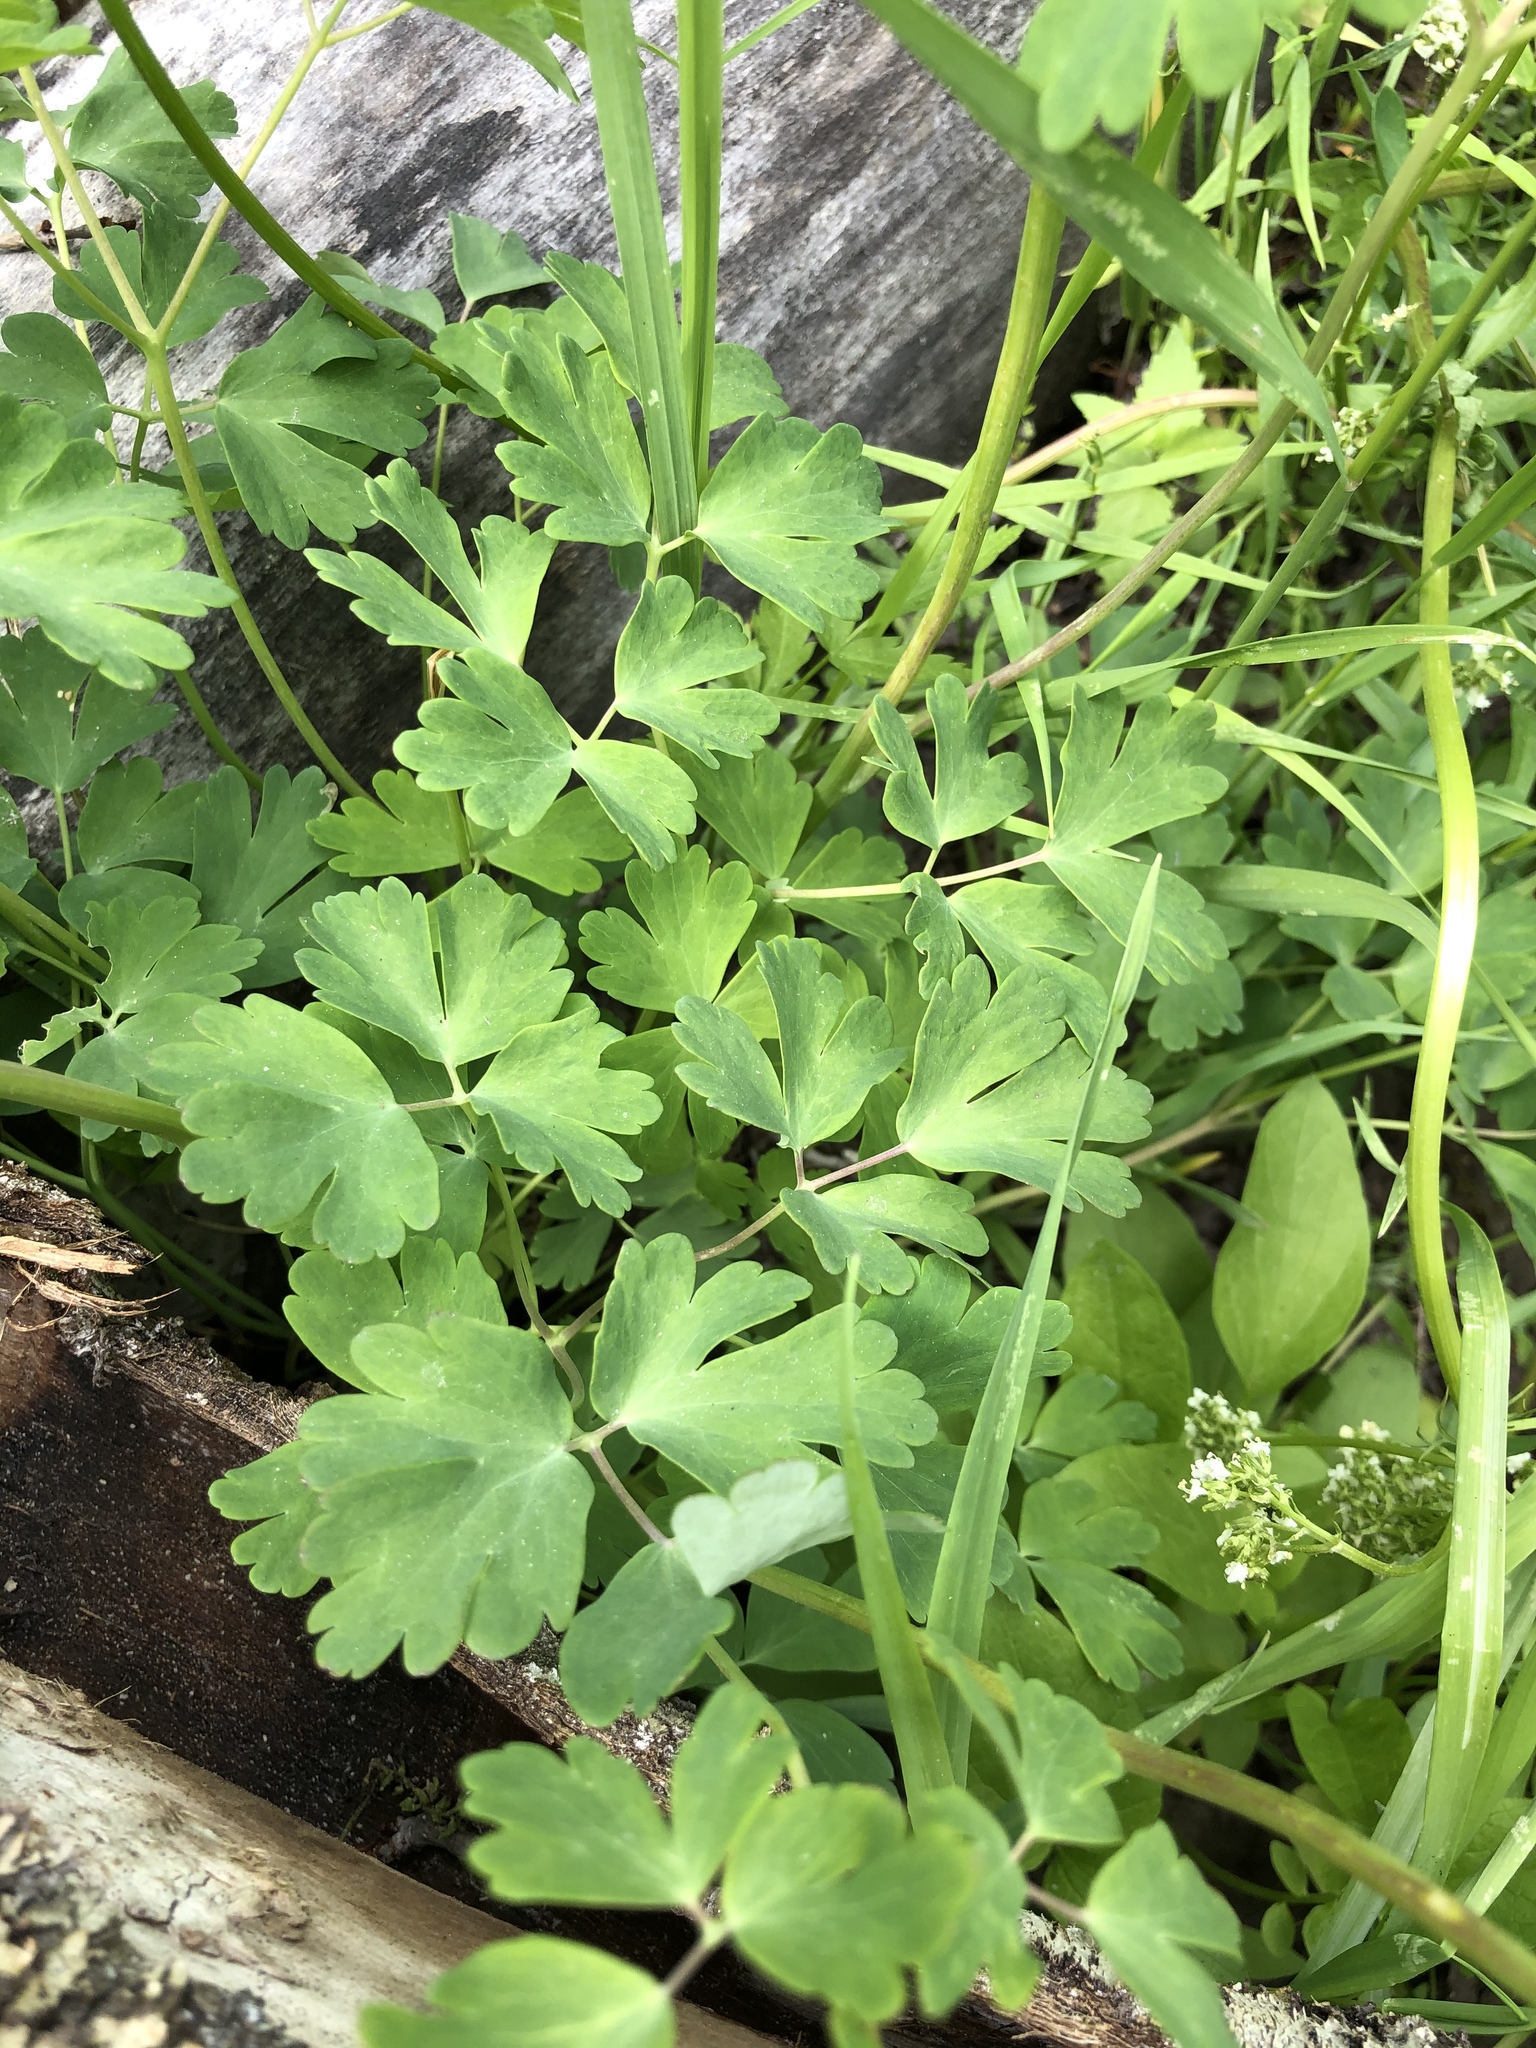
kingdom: Plantae
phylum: Tracheophyta
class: Magnoliopsida
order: Ranunculales
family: Ranunculaceae
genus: Aquilegia
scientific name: Aquilegia coerulea
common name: Rocky mountain columbine
